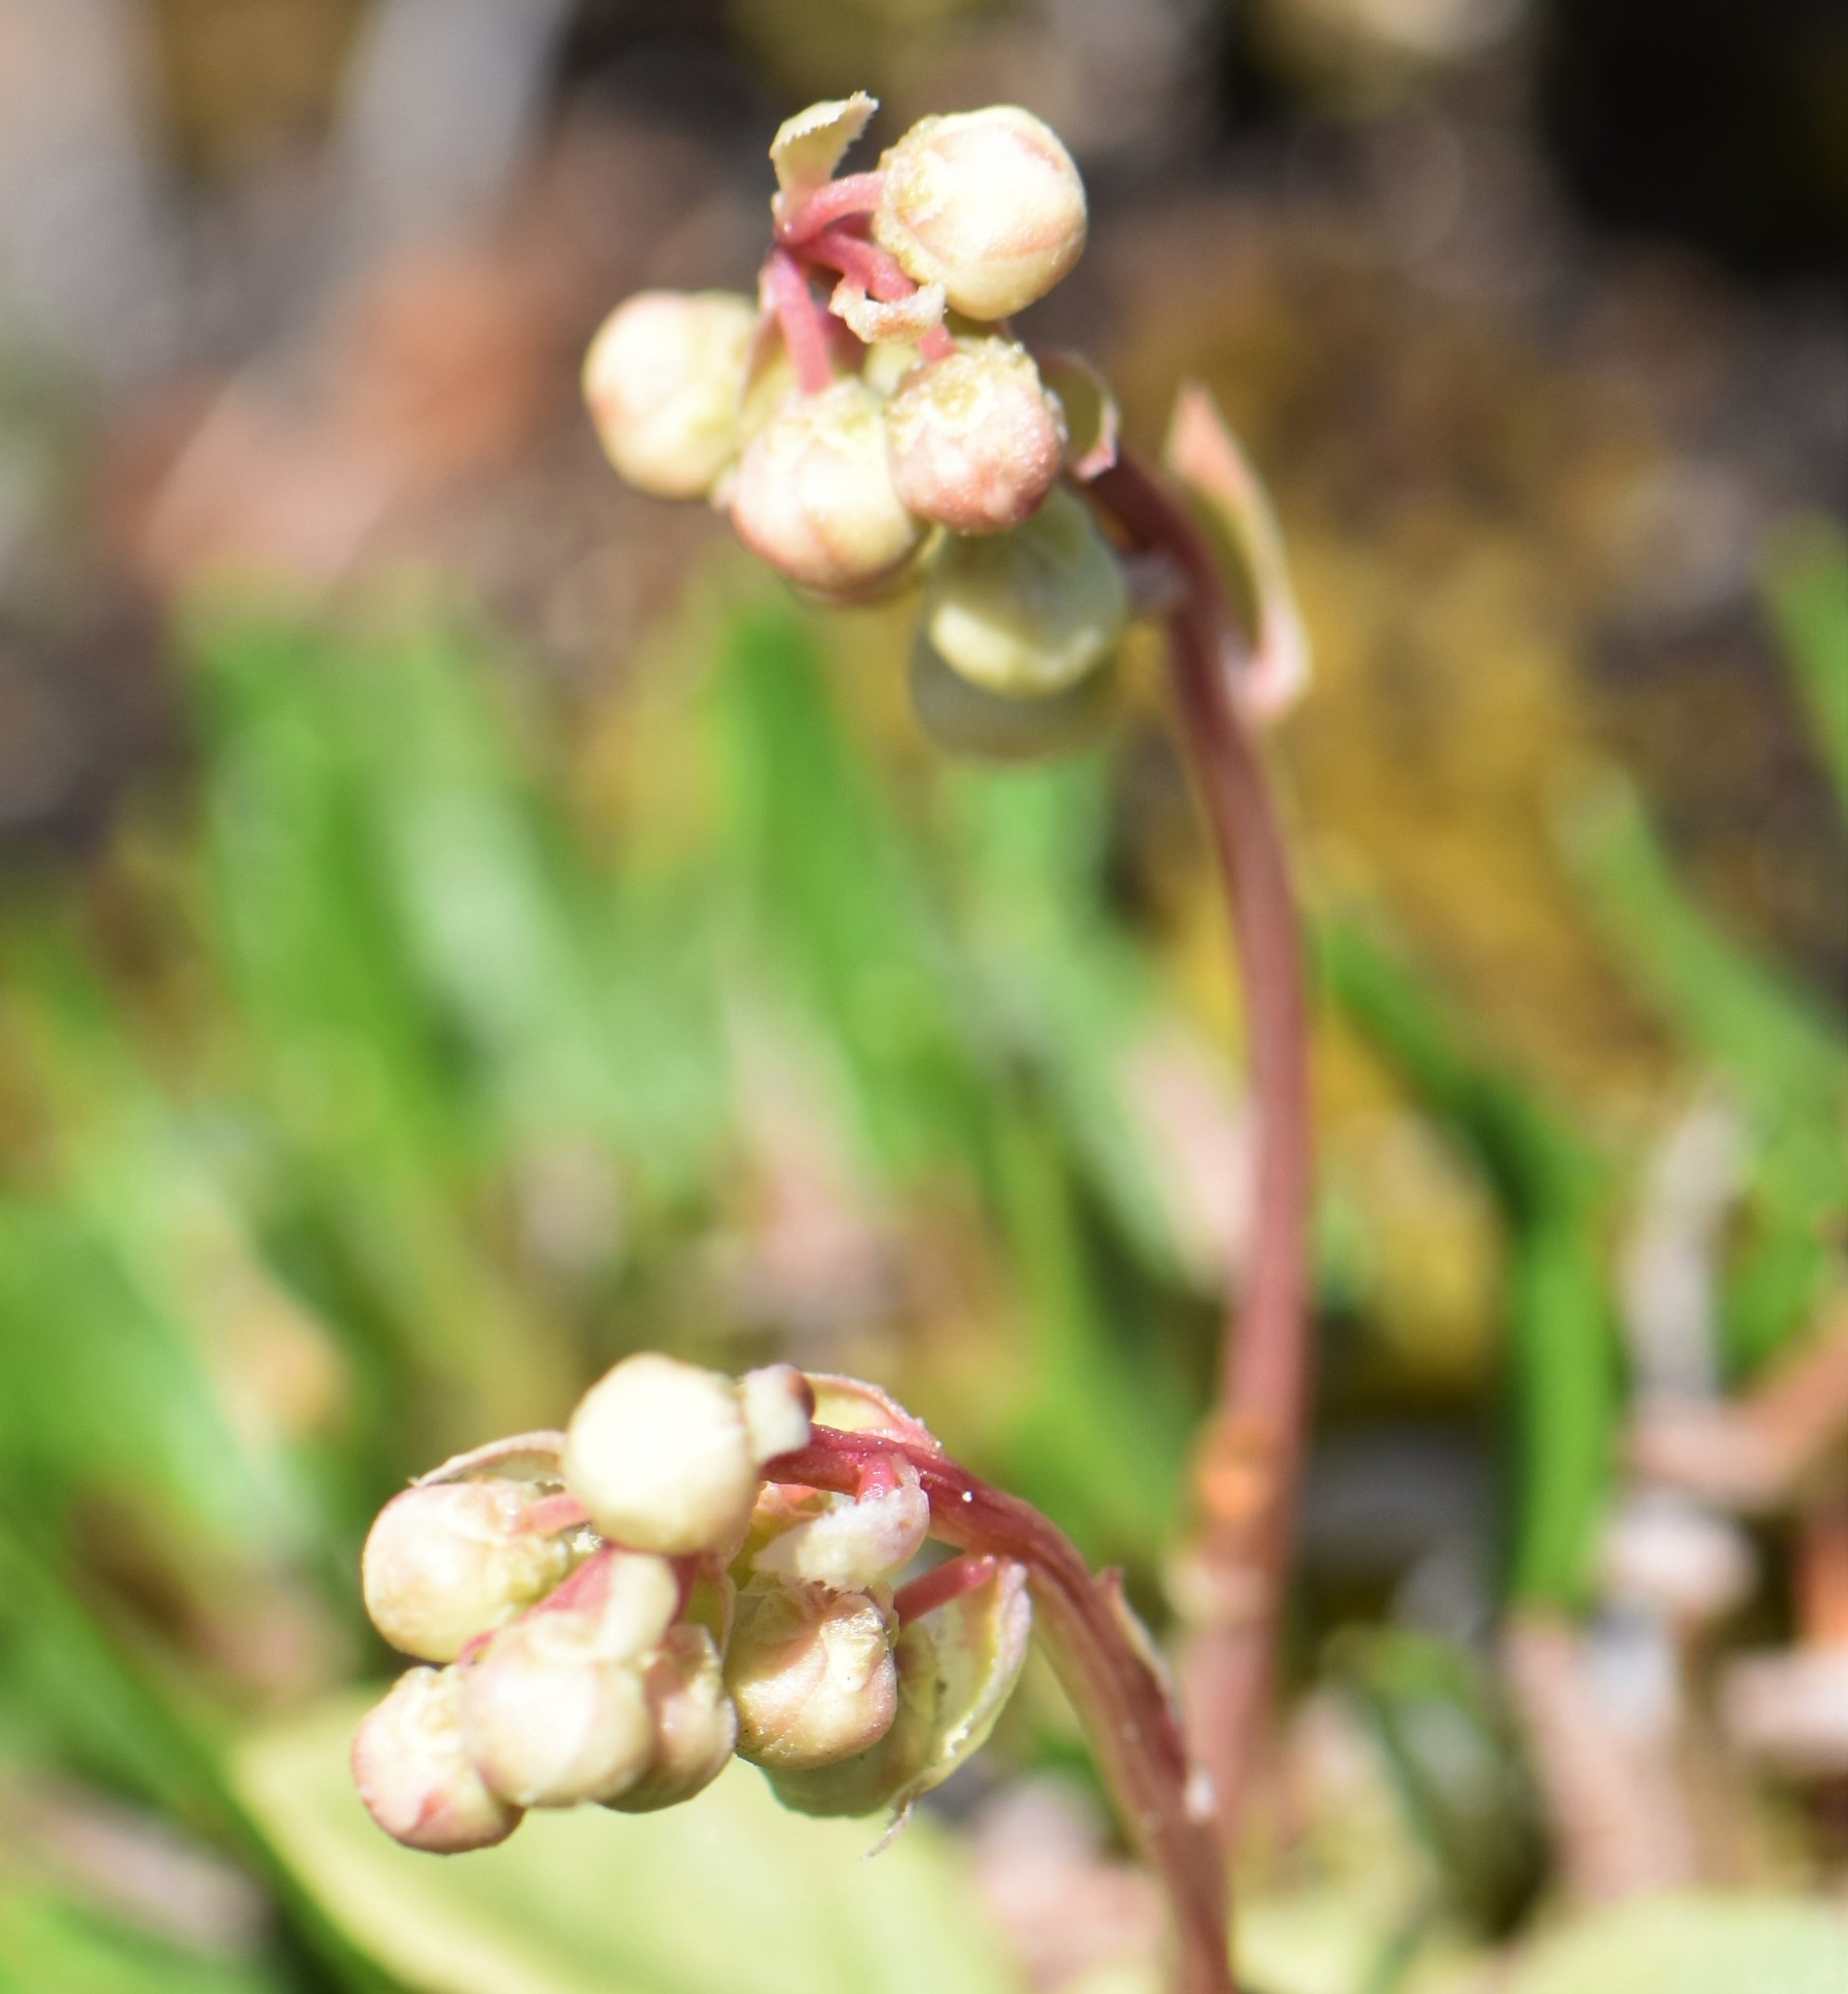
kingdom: Plantae
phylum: Tracheophyta
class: Magnoliopsida
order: Ericales
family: Ericaceae
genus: Pyrola
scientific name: Pyrola minor
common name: Common wintergreen
